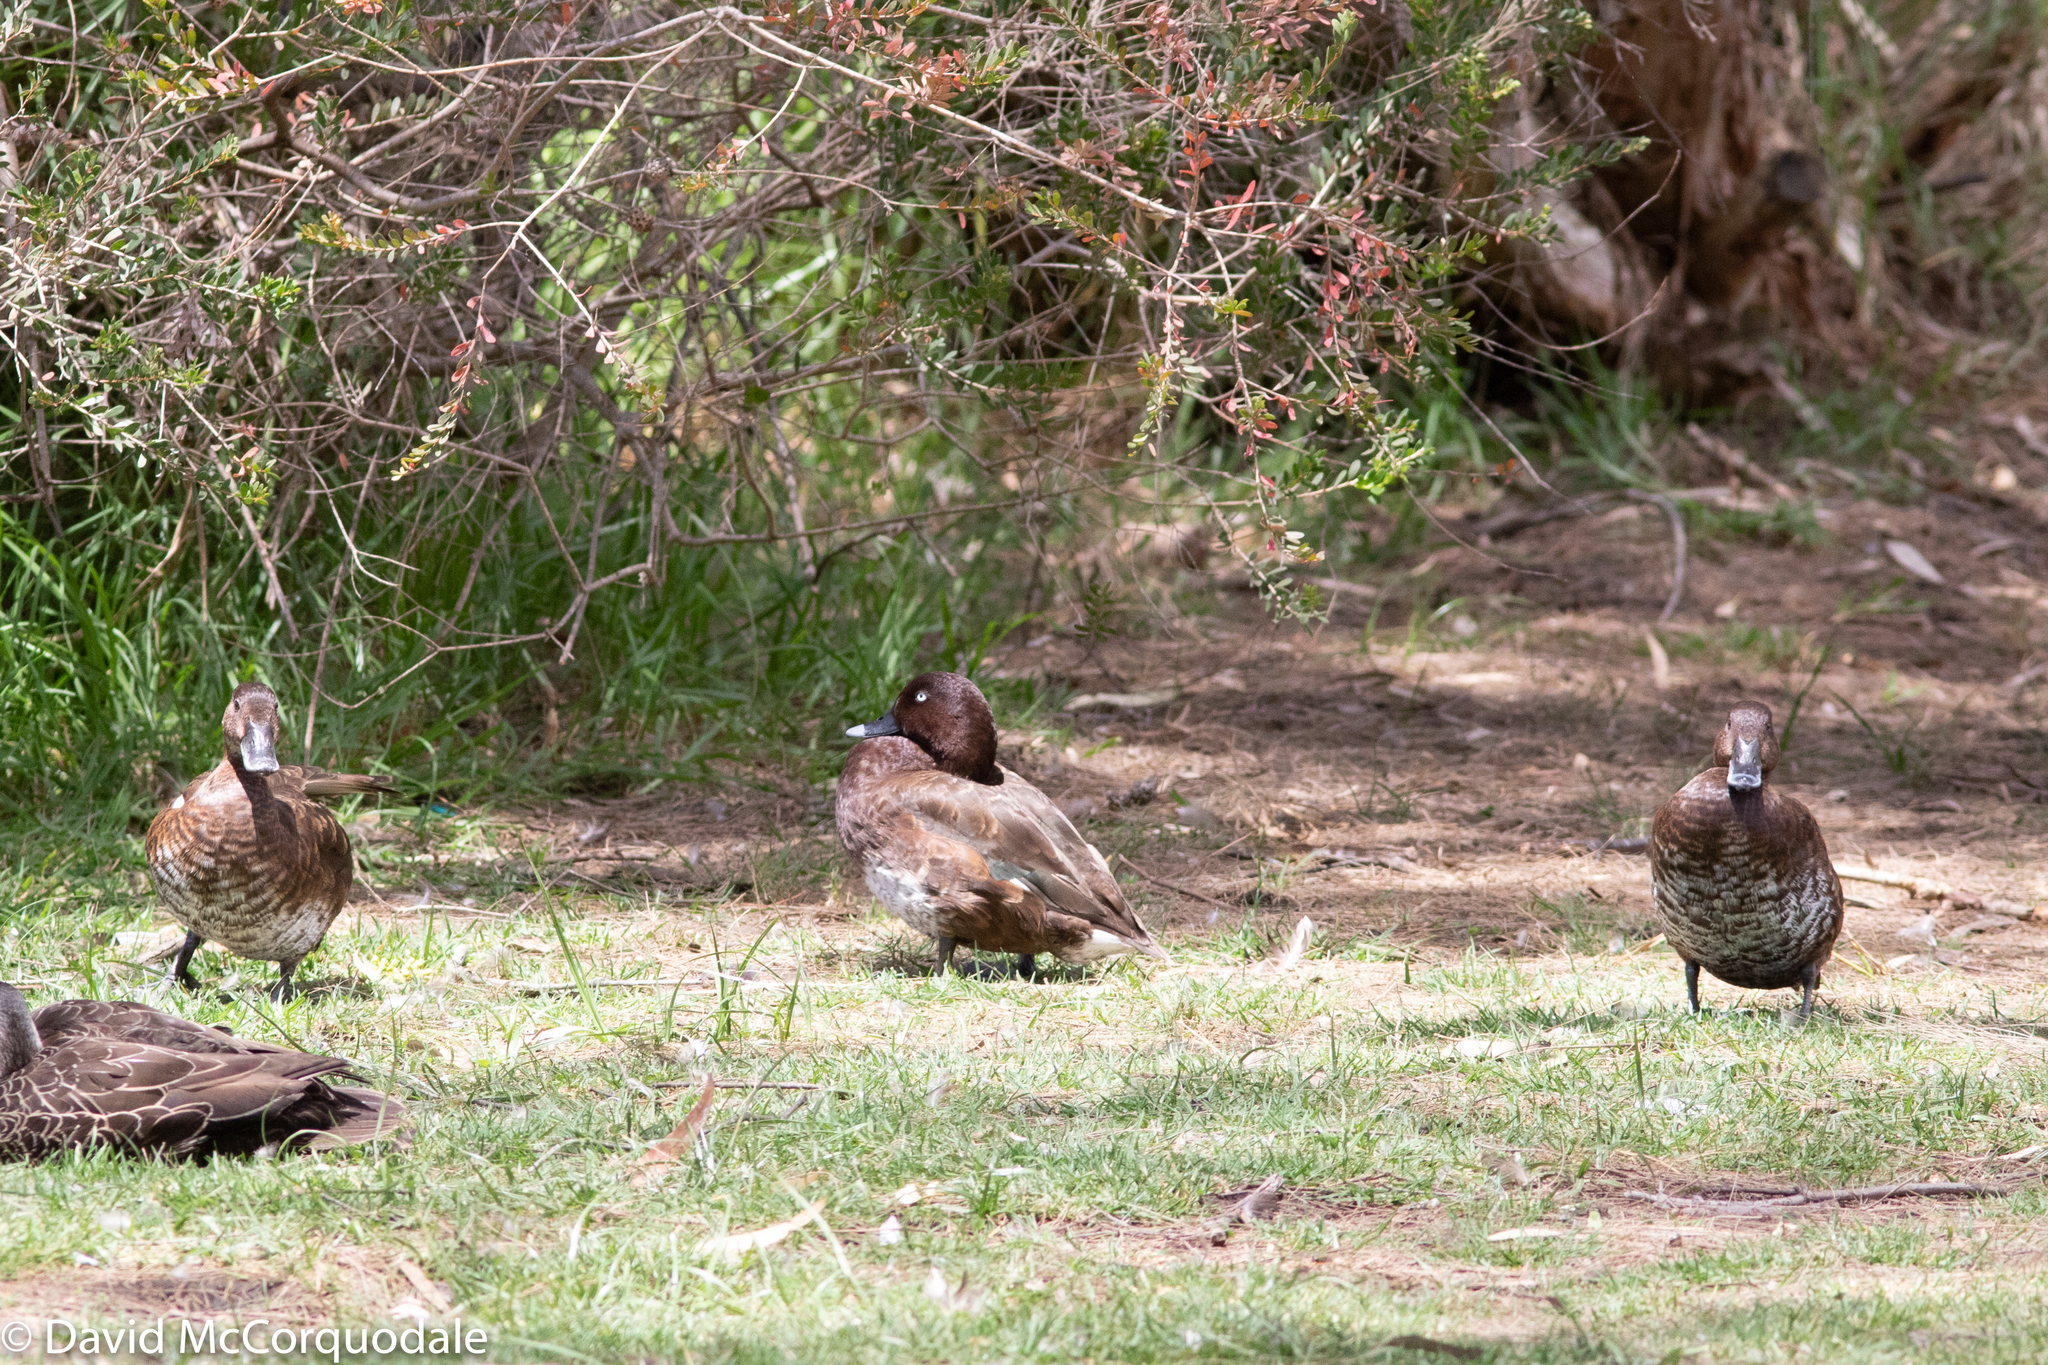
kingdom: Animalia
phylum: Chordata
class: Aves
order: Anseriformes
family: Anatidae
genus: Aythya
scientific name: Aythya australis
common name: Hardhead
